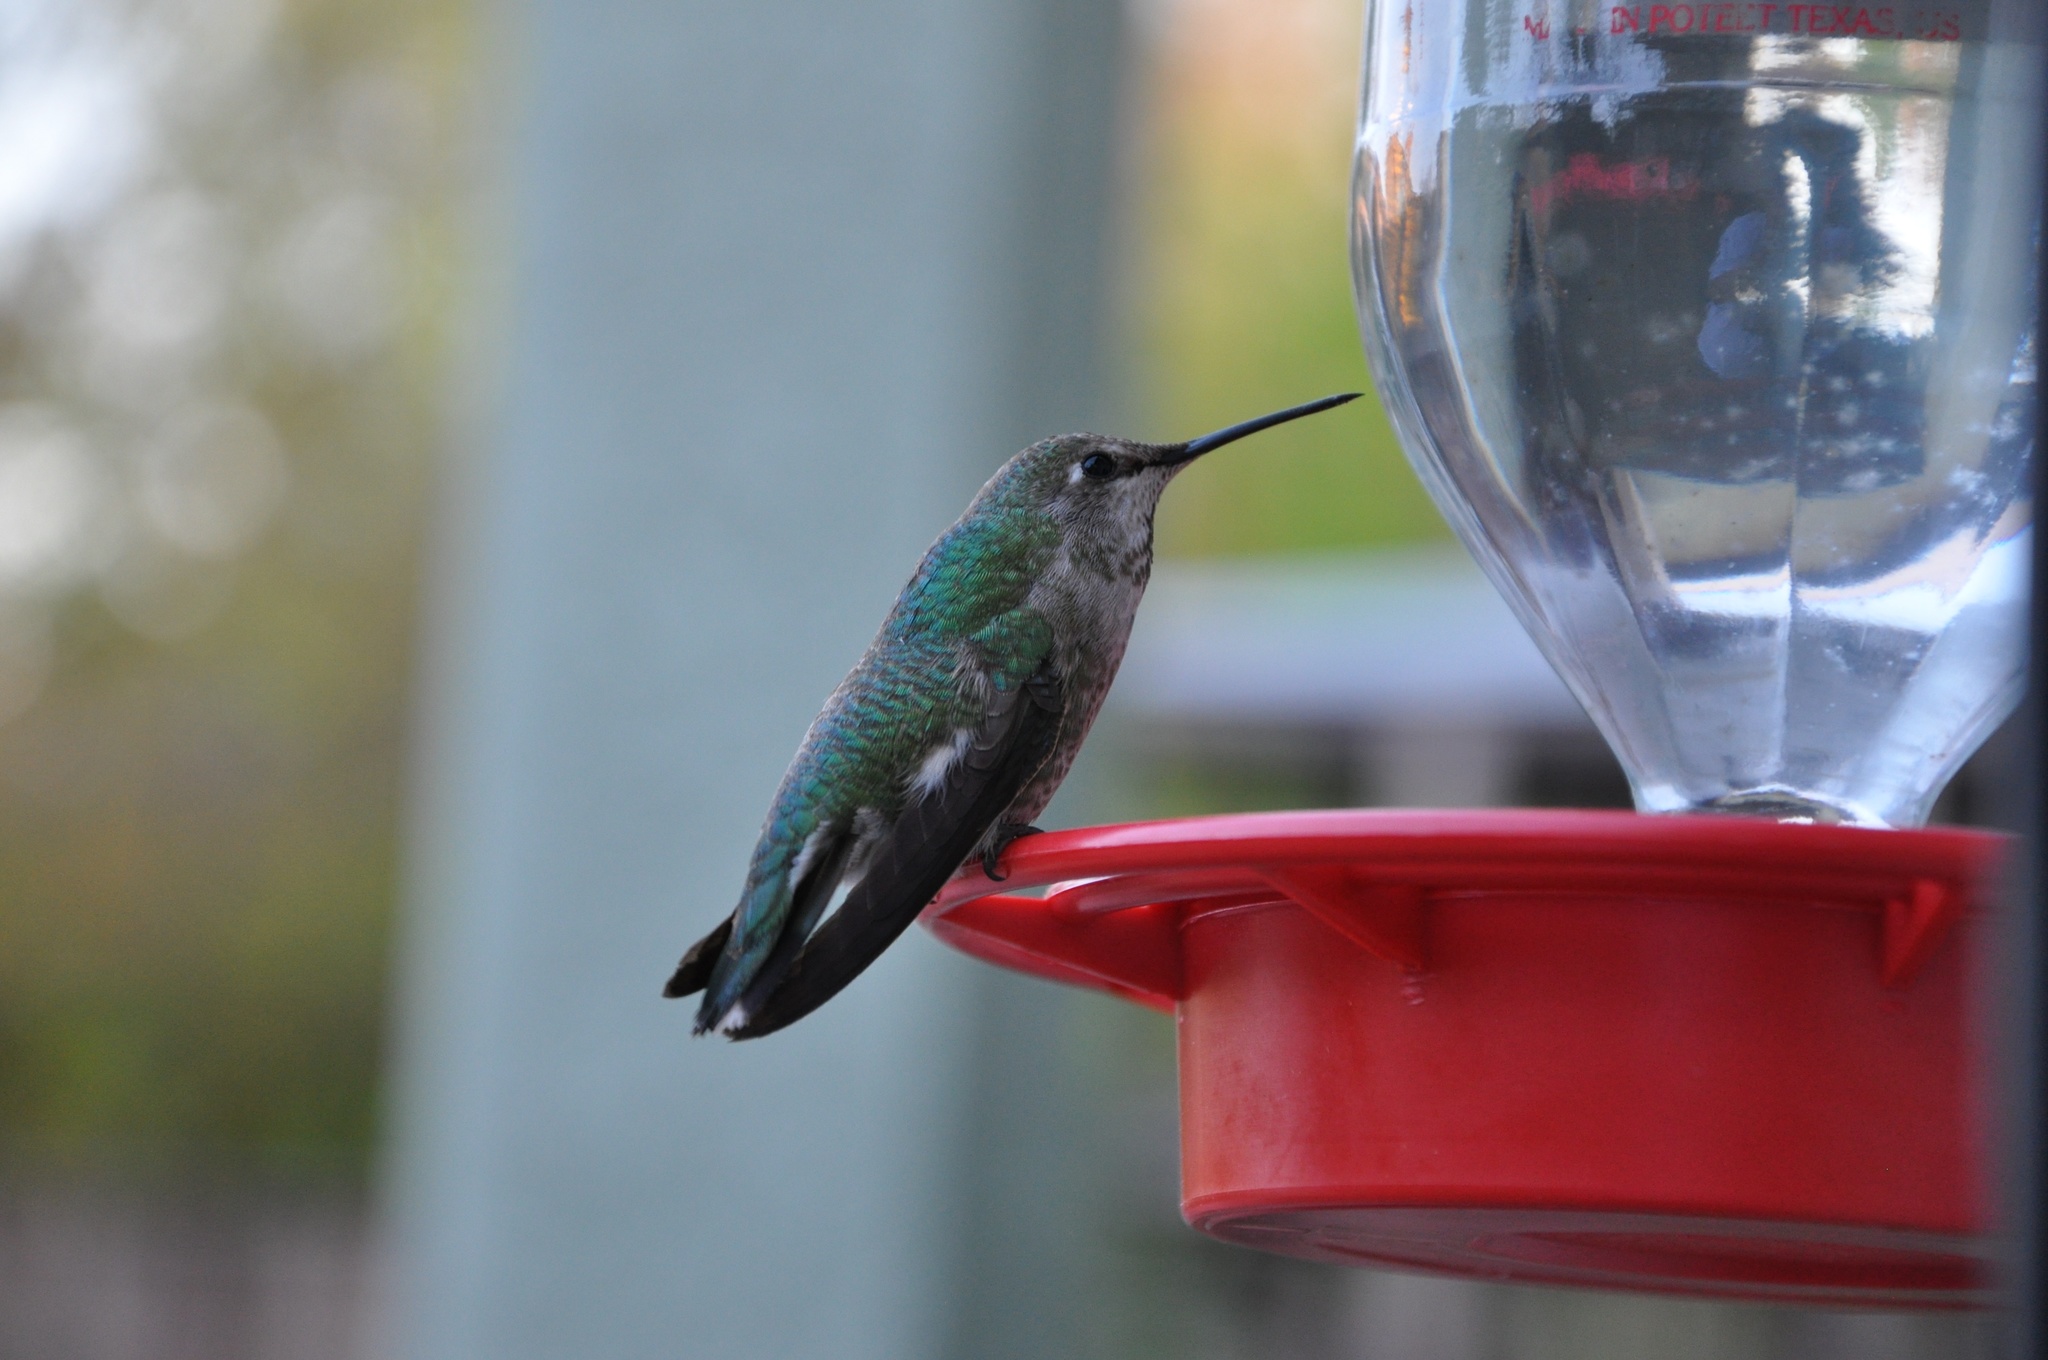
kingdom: Animalia
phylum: Chordata
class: Aves
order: Apodiformes
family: Trochilidae
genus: Calypte
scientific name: Calypte anna
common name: Anna's hummingbird
